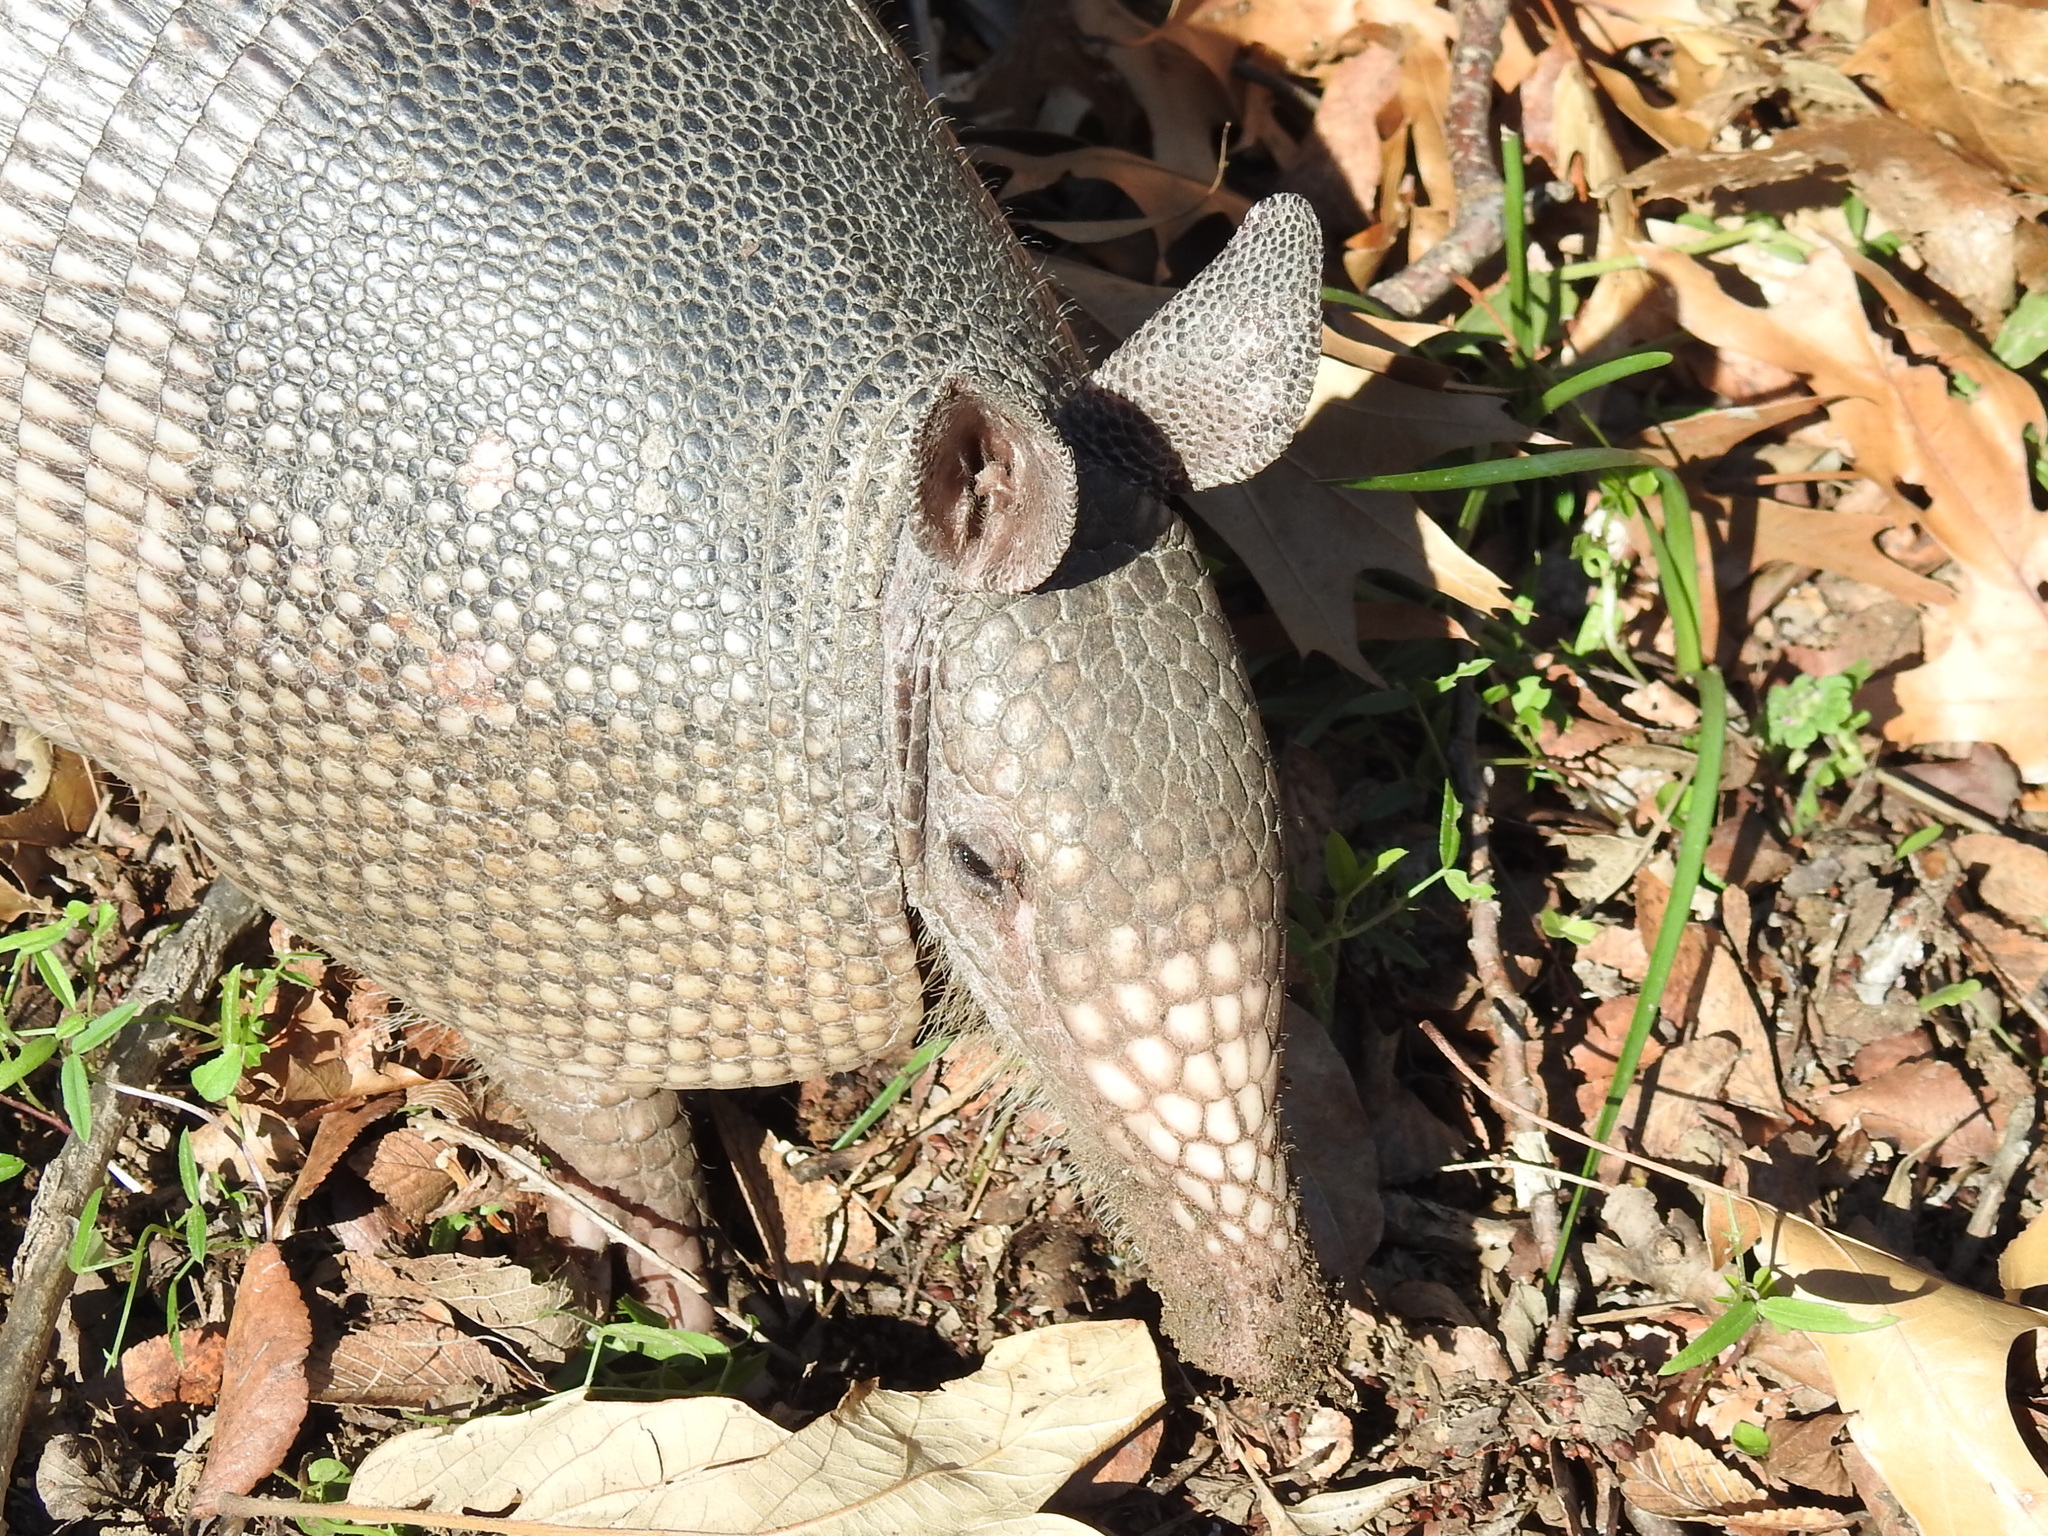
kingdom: Animalia
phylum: Chordata
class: Mammalia
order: Cingulata
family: Dasypodidae
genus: Dasypus
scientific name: Dasypus novemcinctus
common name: Nine-banded armadillo
